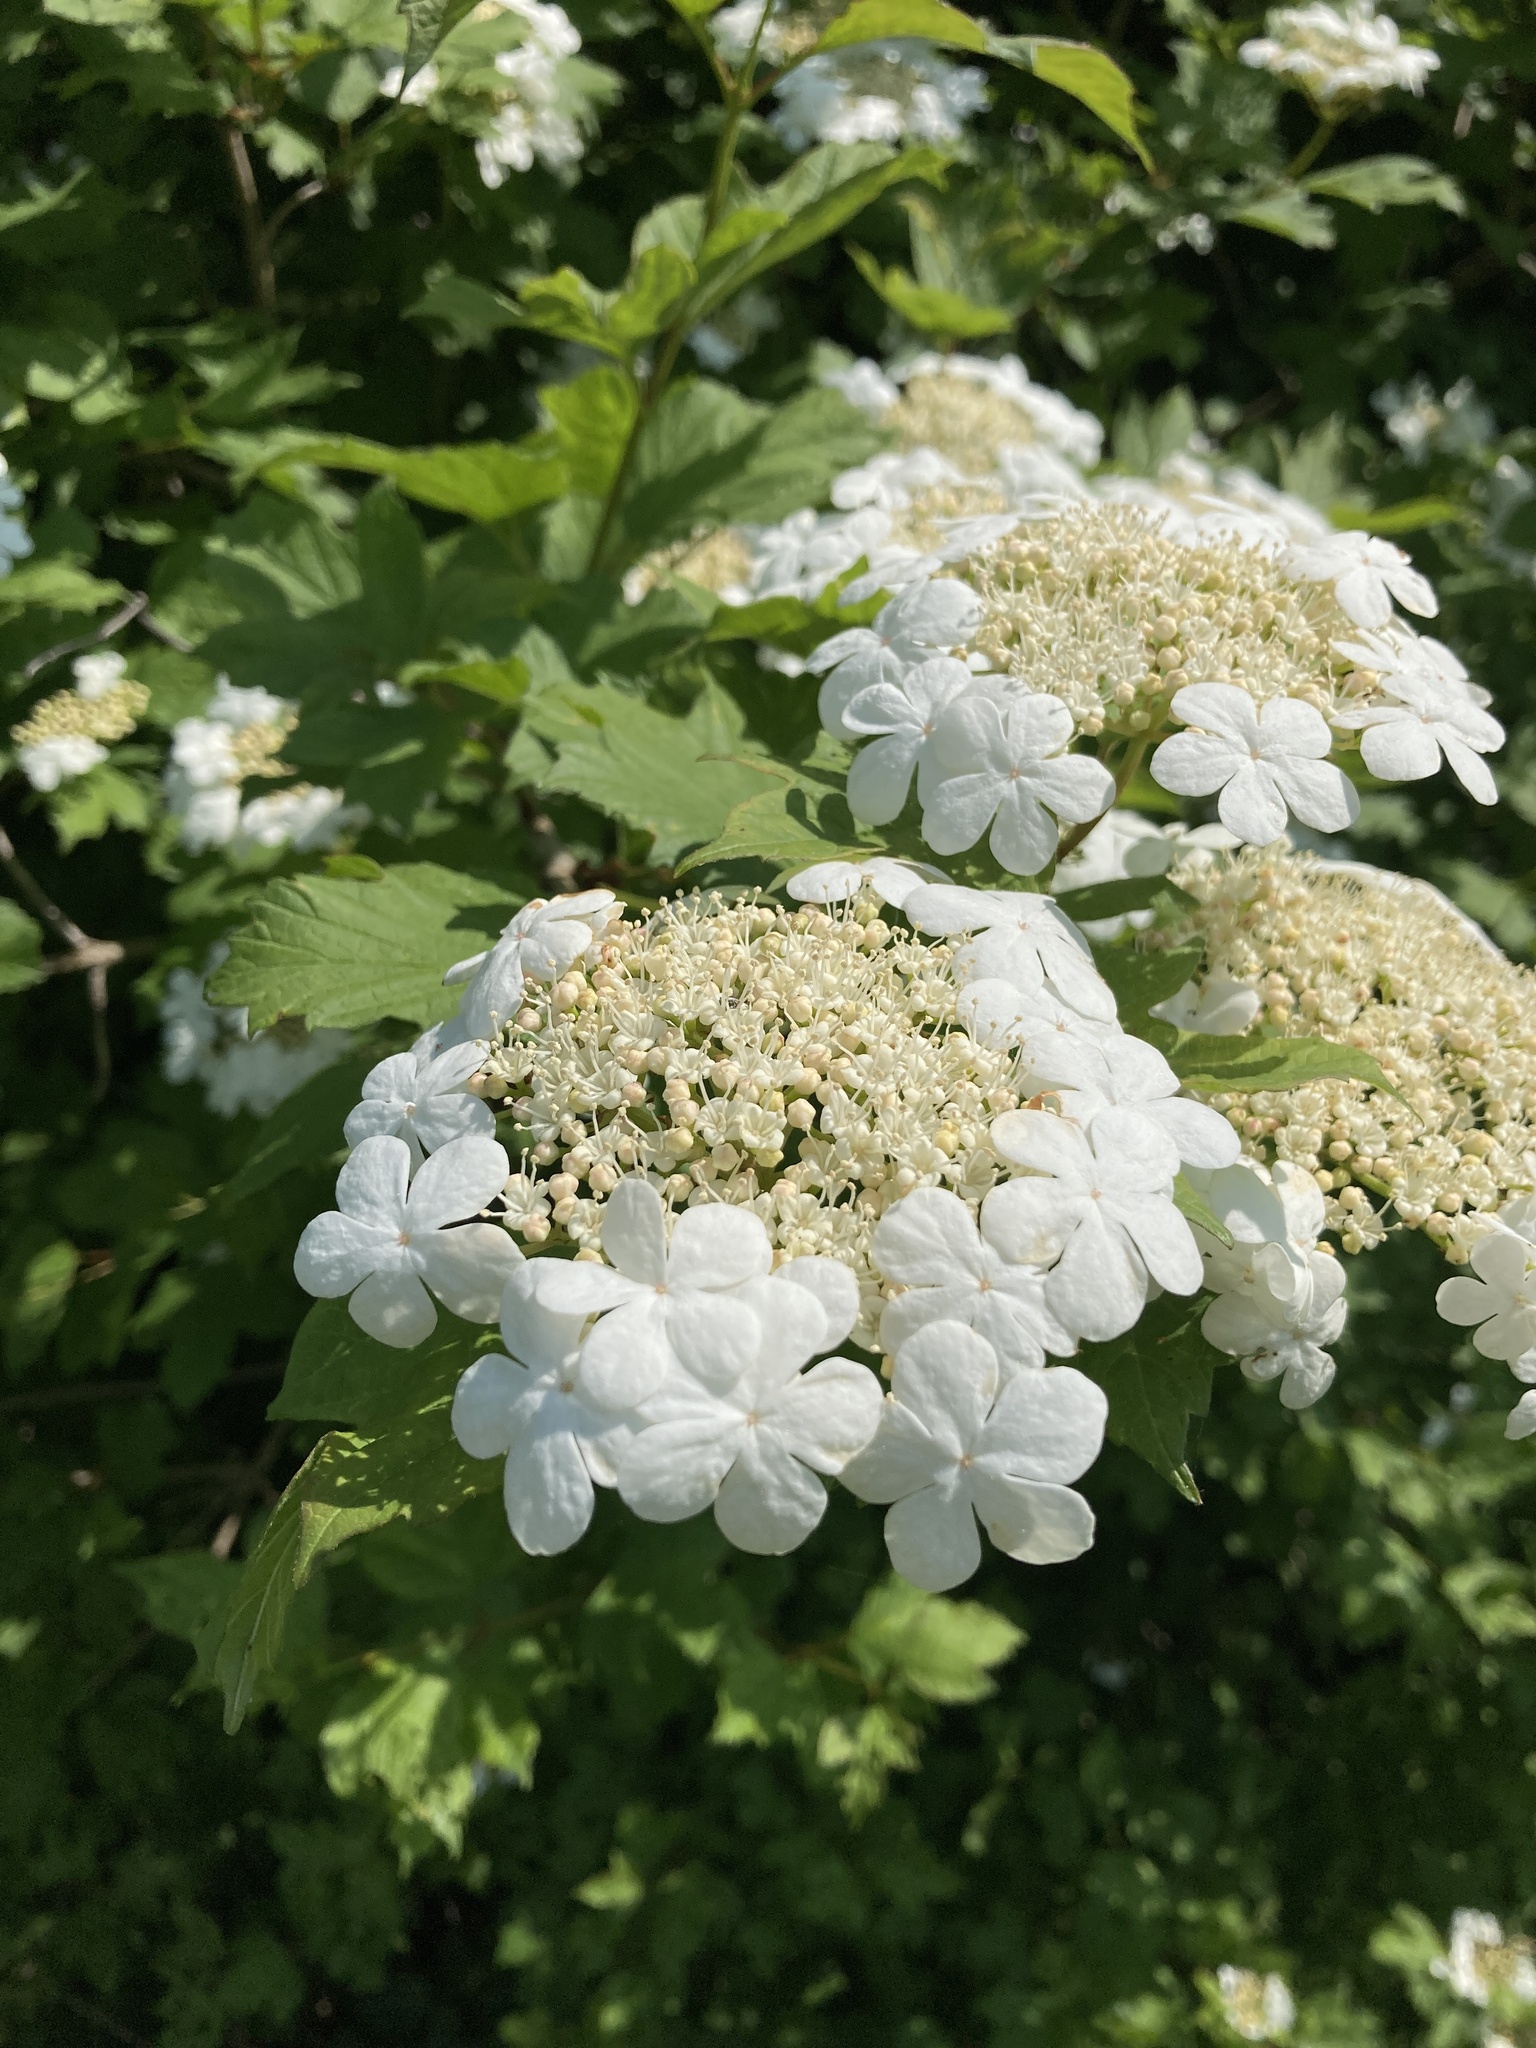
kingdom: Plantae
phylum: Tracheophyta
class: Magnoliopsida
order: Dipsacales
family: Viburnaceae
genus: Viburnum
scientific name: Viburnum opulus
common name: Guelder-rose
